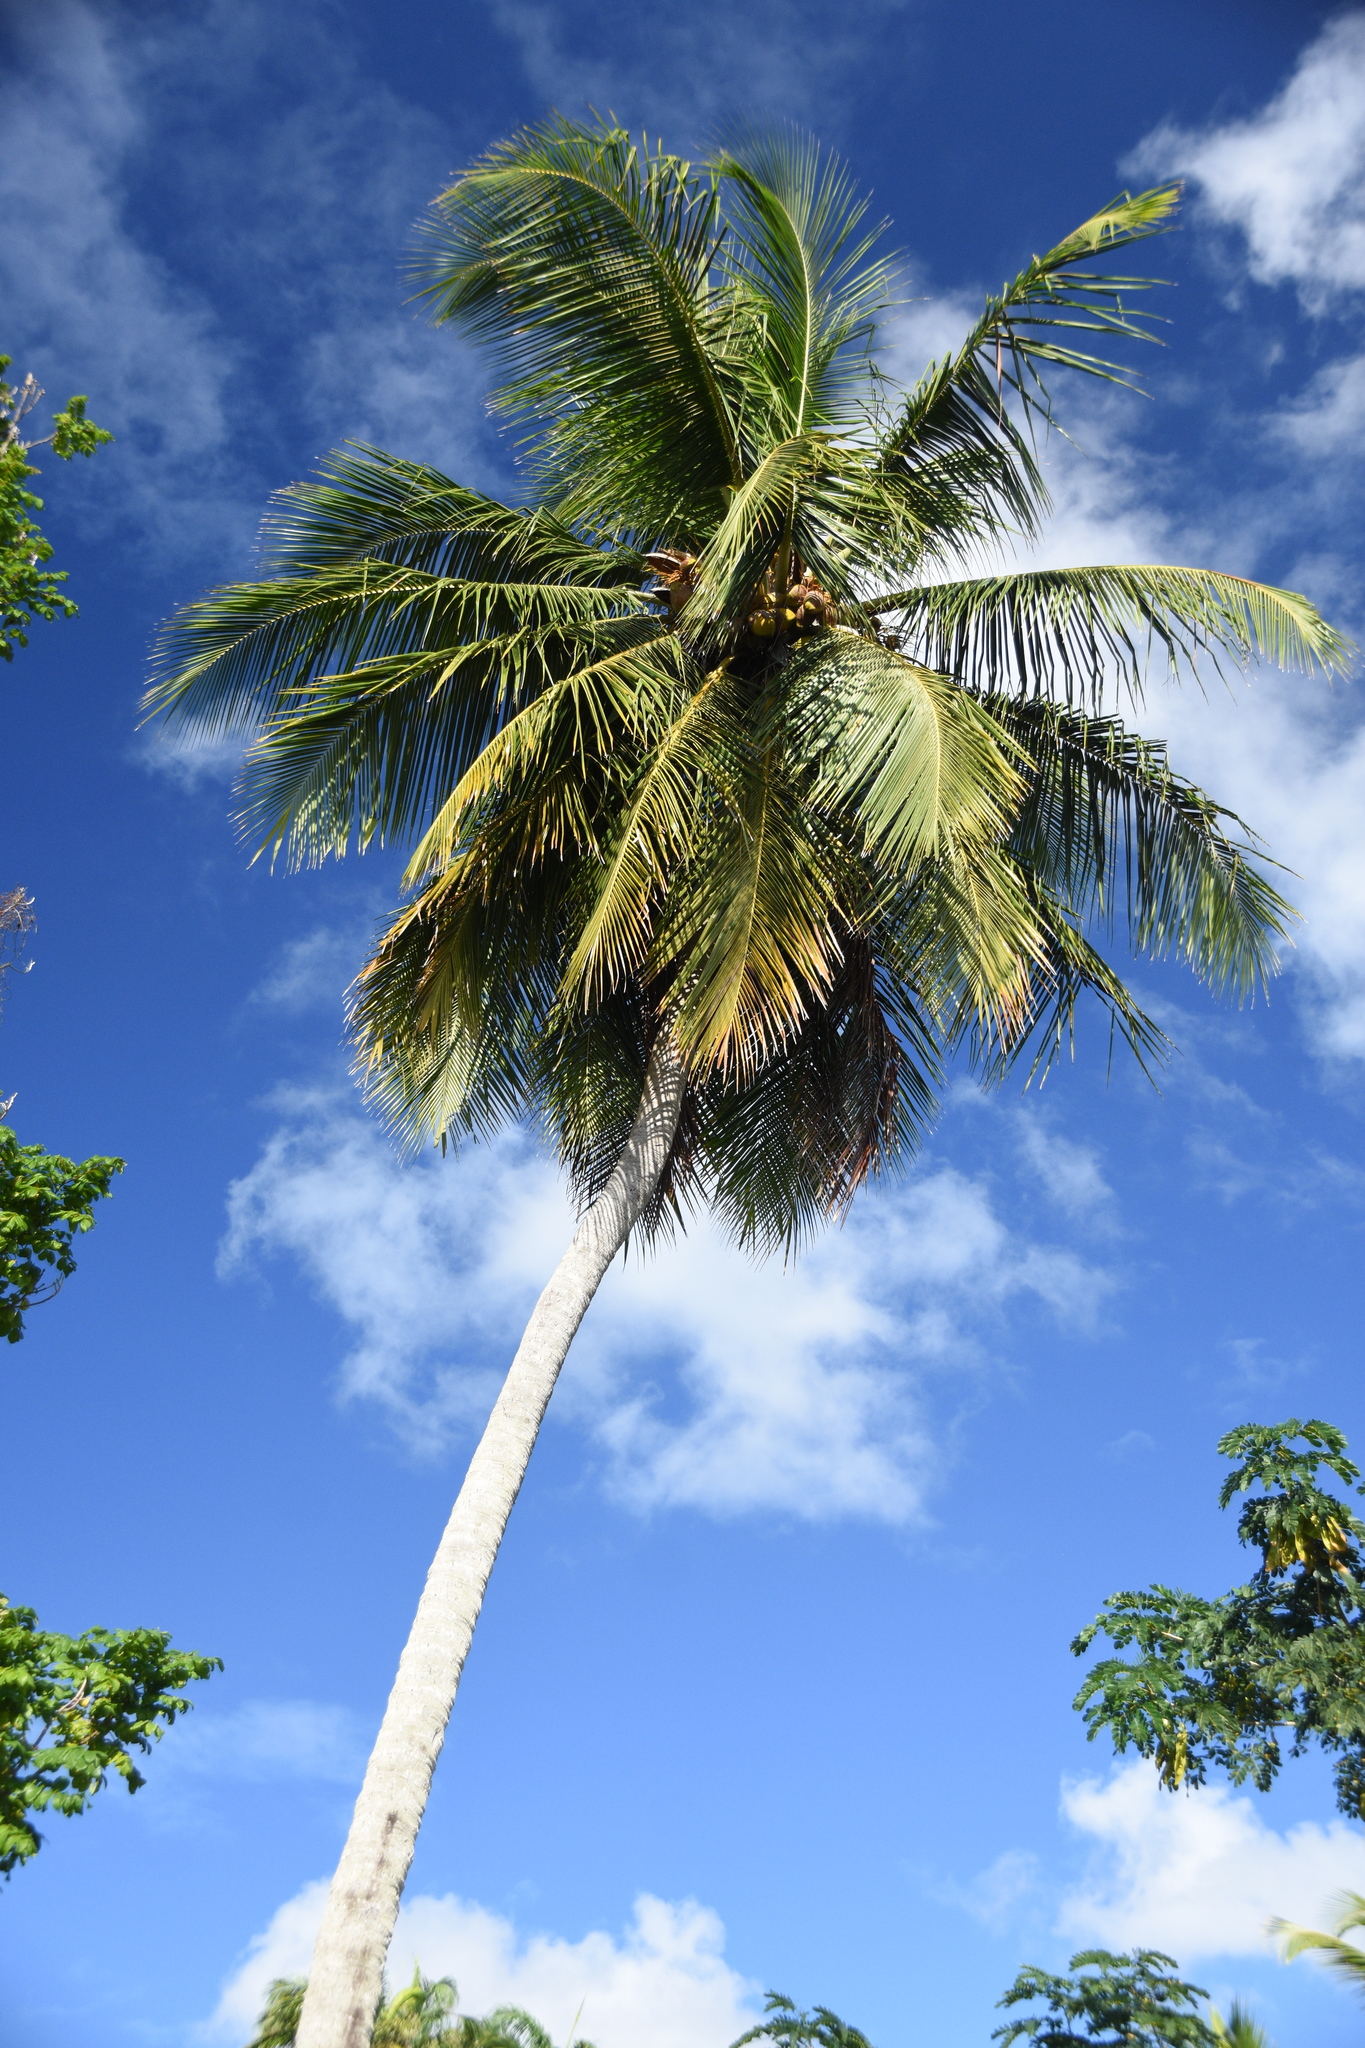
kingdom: Plantae
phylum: Tracheophyta
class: Liliopsida
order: Arecales
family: Arecaceae
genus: Cocos
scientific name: Cocos nucifera
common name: Coconut palm
